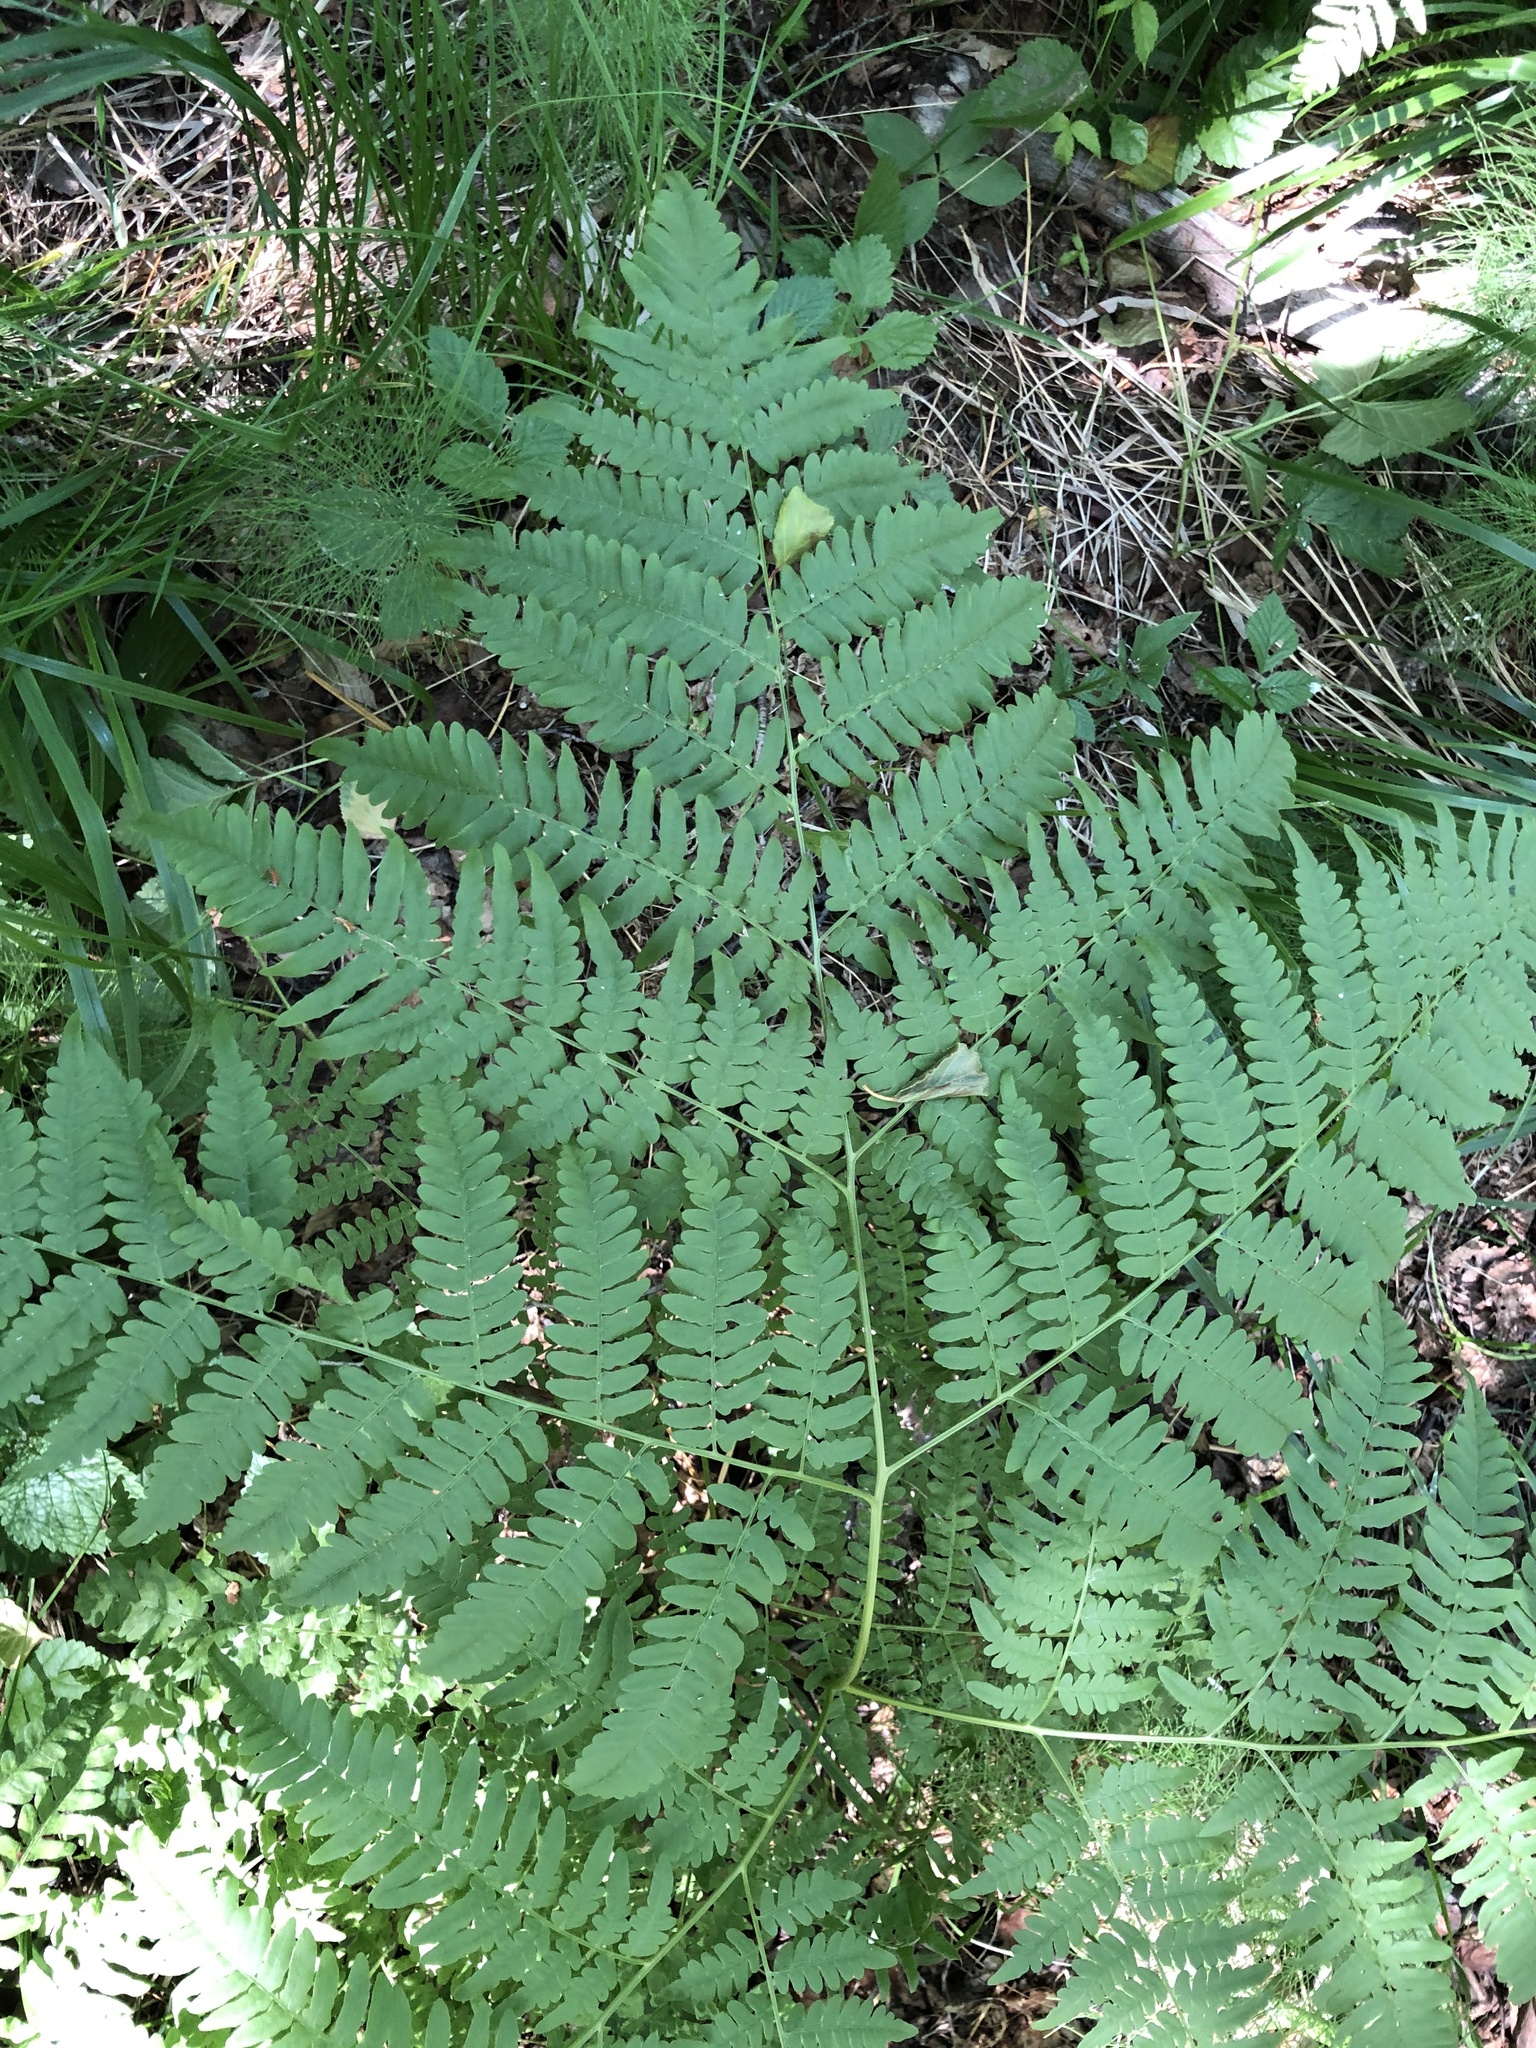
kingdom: Plantae
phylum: Tracheophyta
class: Polypodiopsida
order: Polypodiales
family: Dennstaedtiaceae
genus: Pteridium
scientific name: Pteridium aquilinum
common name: Bracken
